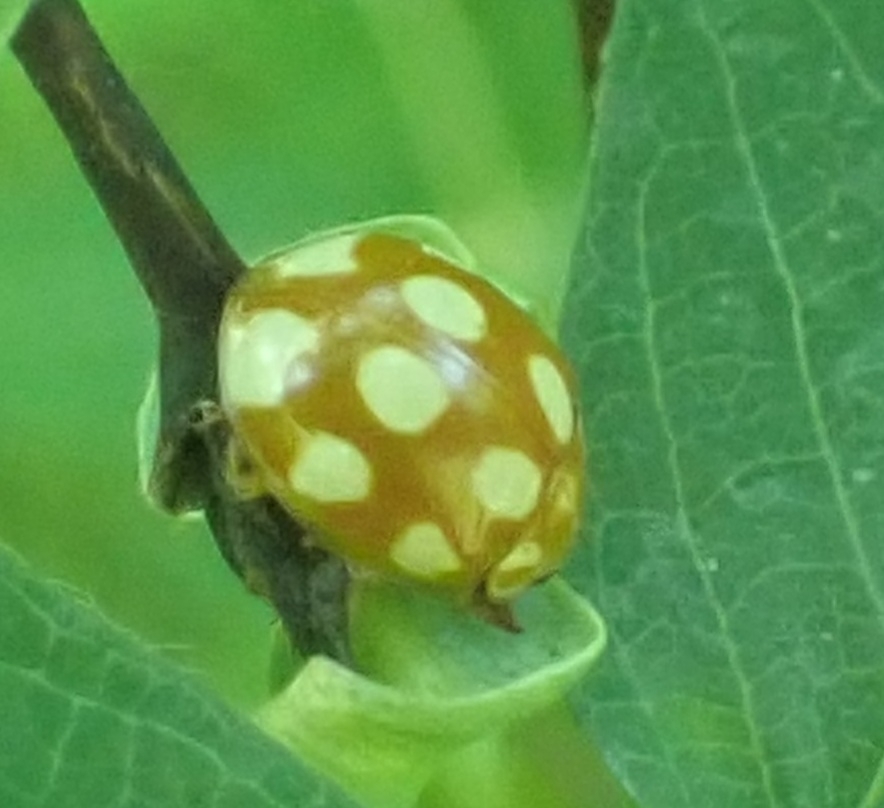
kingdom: Animalia
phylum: Arthropoda
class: Insecta
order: Coleoptera
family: Coccinellidae
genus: Calvia
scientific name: Calvia decemguttata
